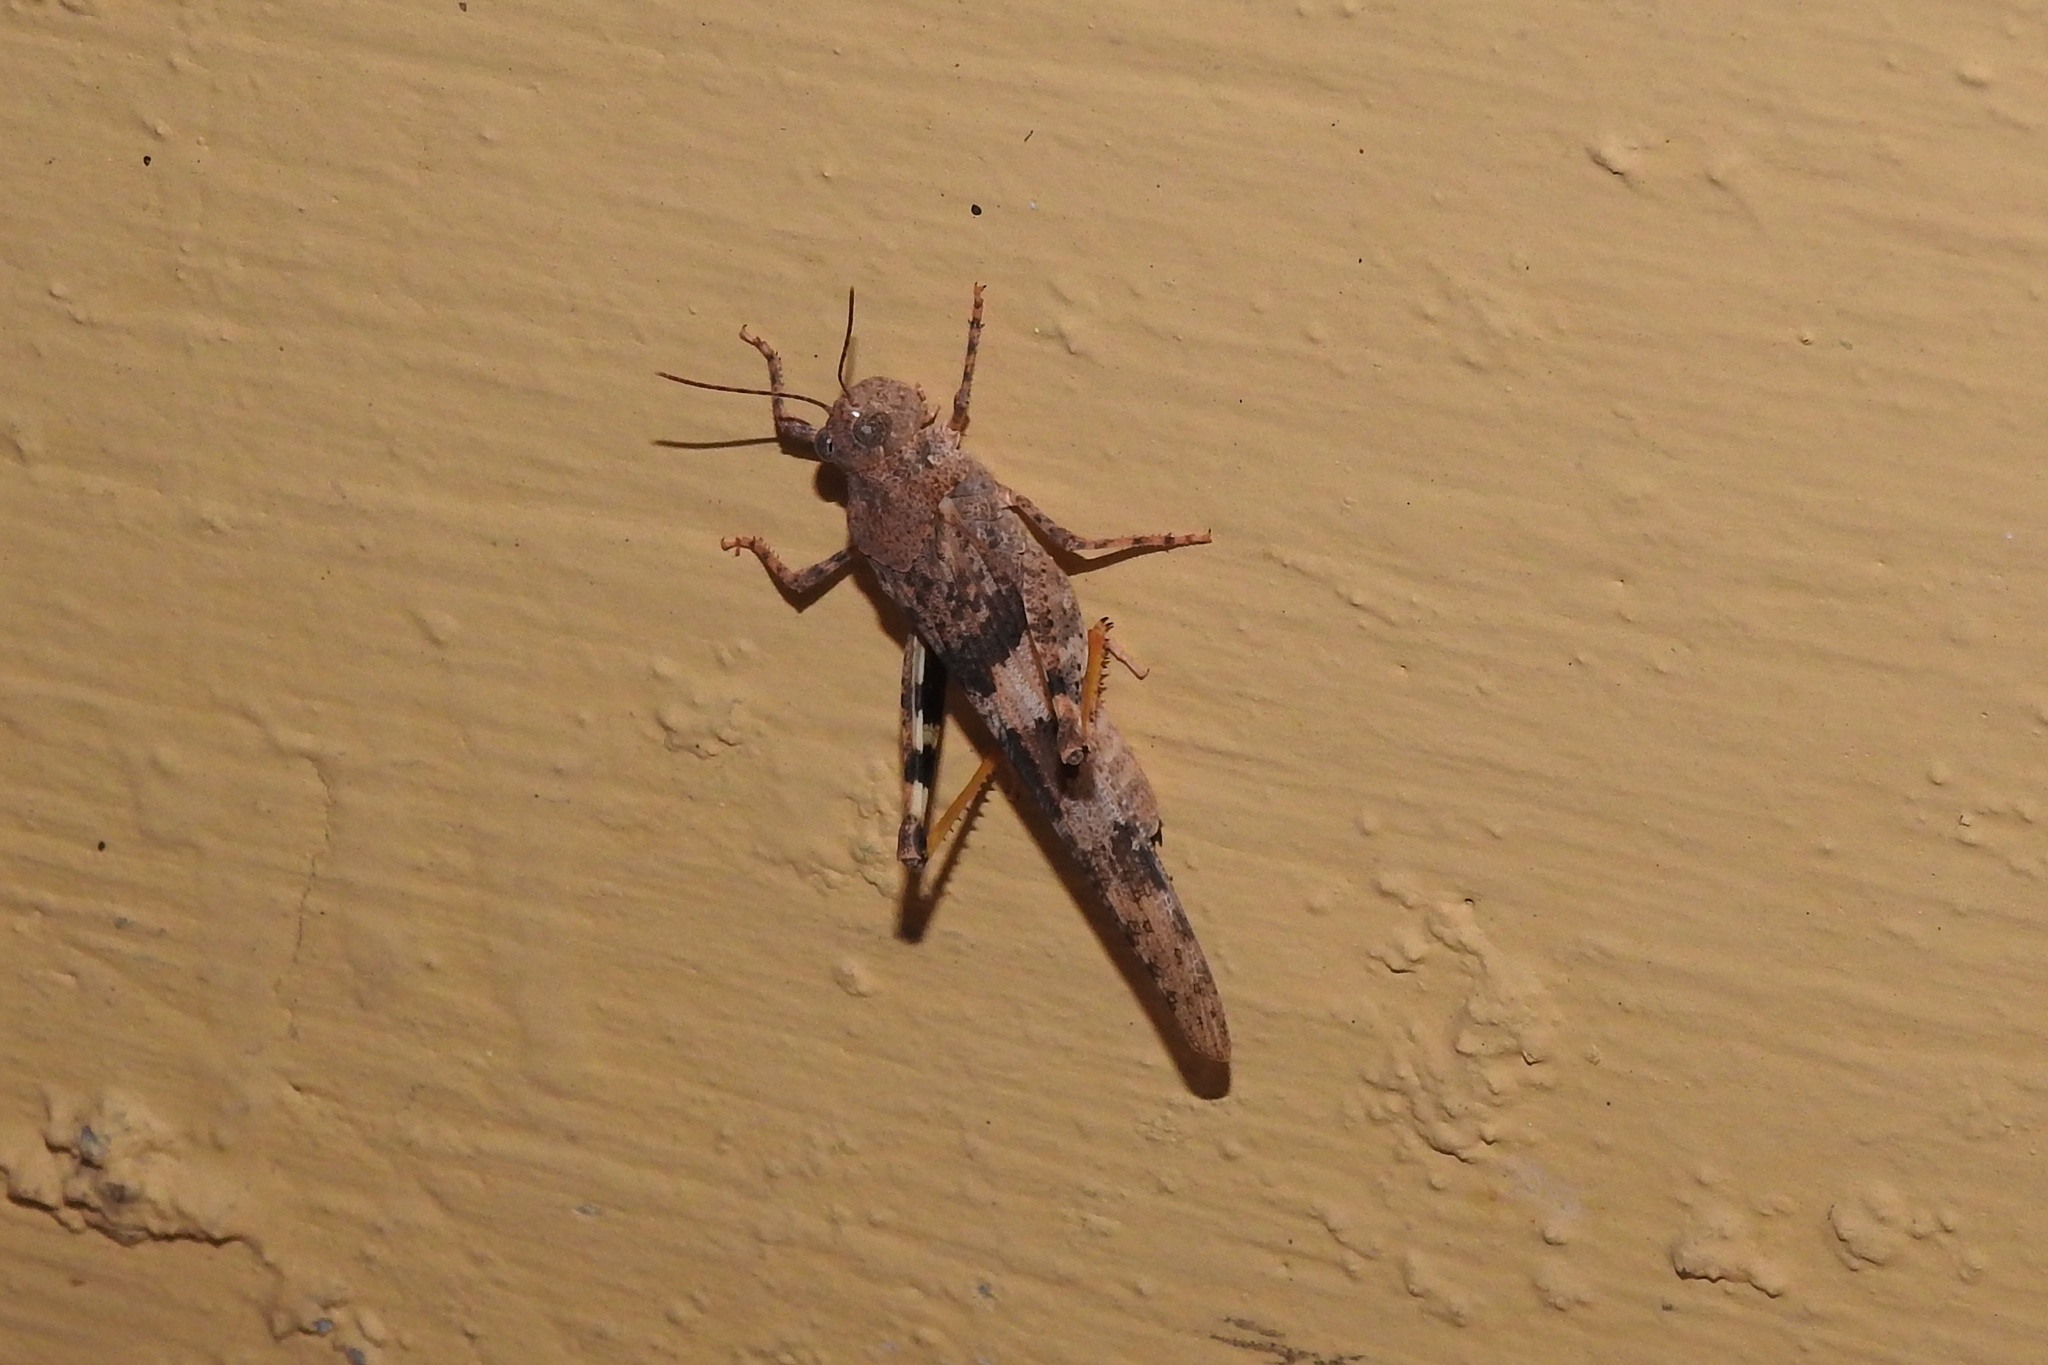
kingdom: Animalia
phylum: Arthropoda
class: Insecta
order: Orthoptera
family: Acrididae
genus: Trimerotropis
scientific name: Trimerotropis pallidipennis
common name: Pallid-winged grasshopper
